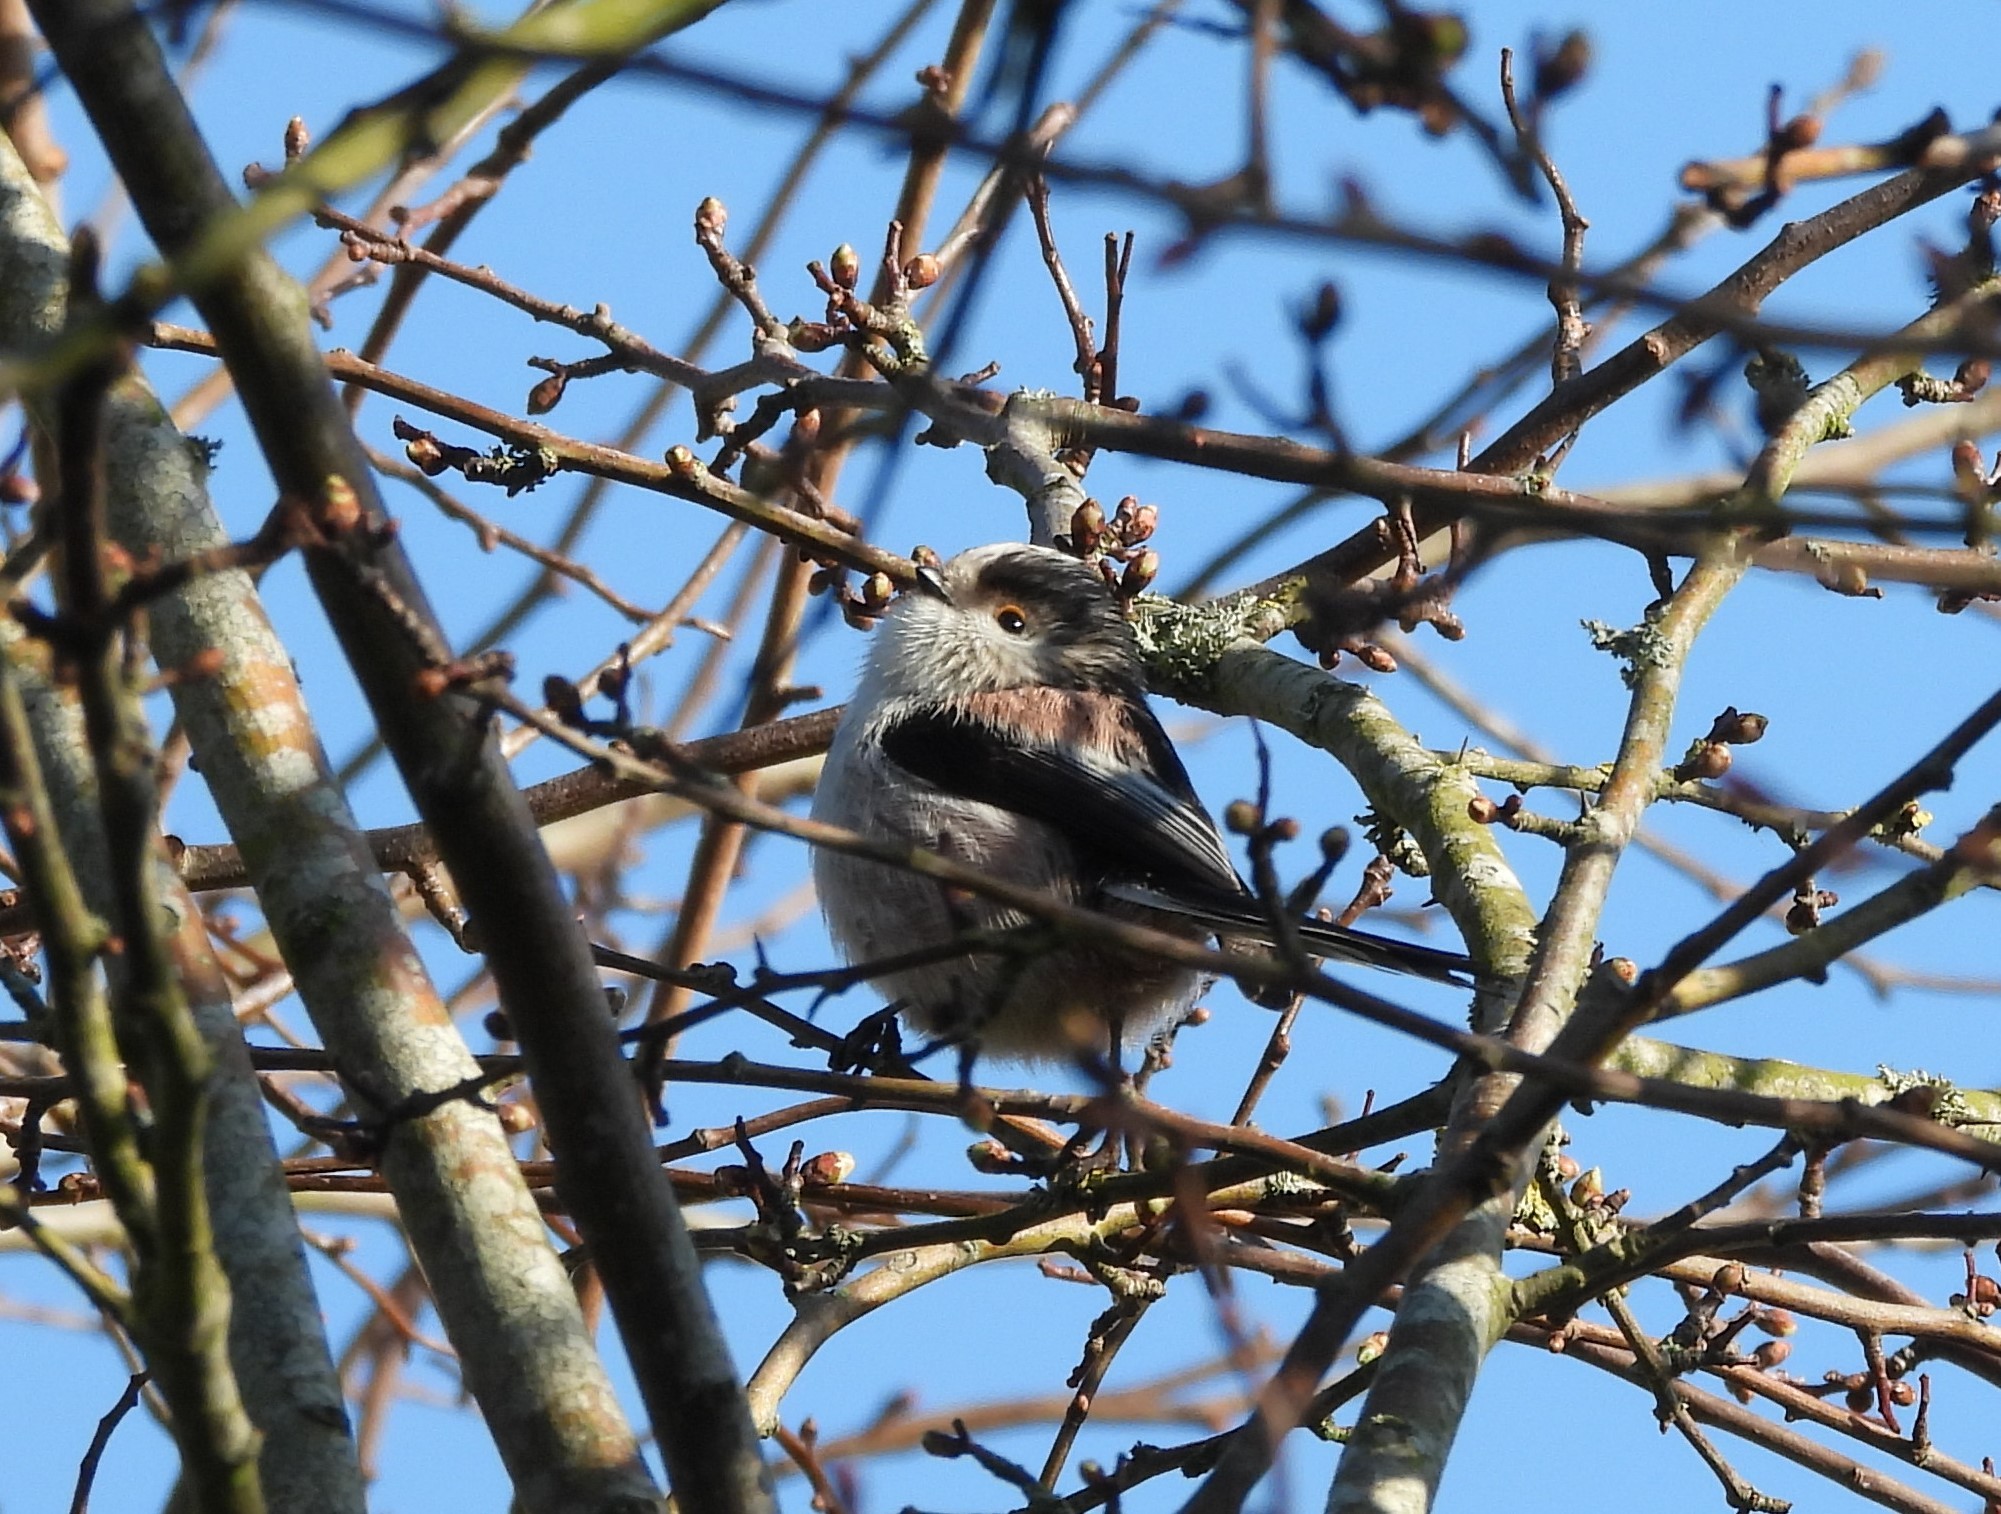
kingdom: Animalia
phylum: Chordata
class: Aves
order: Passeriformes
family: Aegithalidae
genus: Aegithalos
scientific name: Aegithalos caudatus
